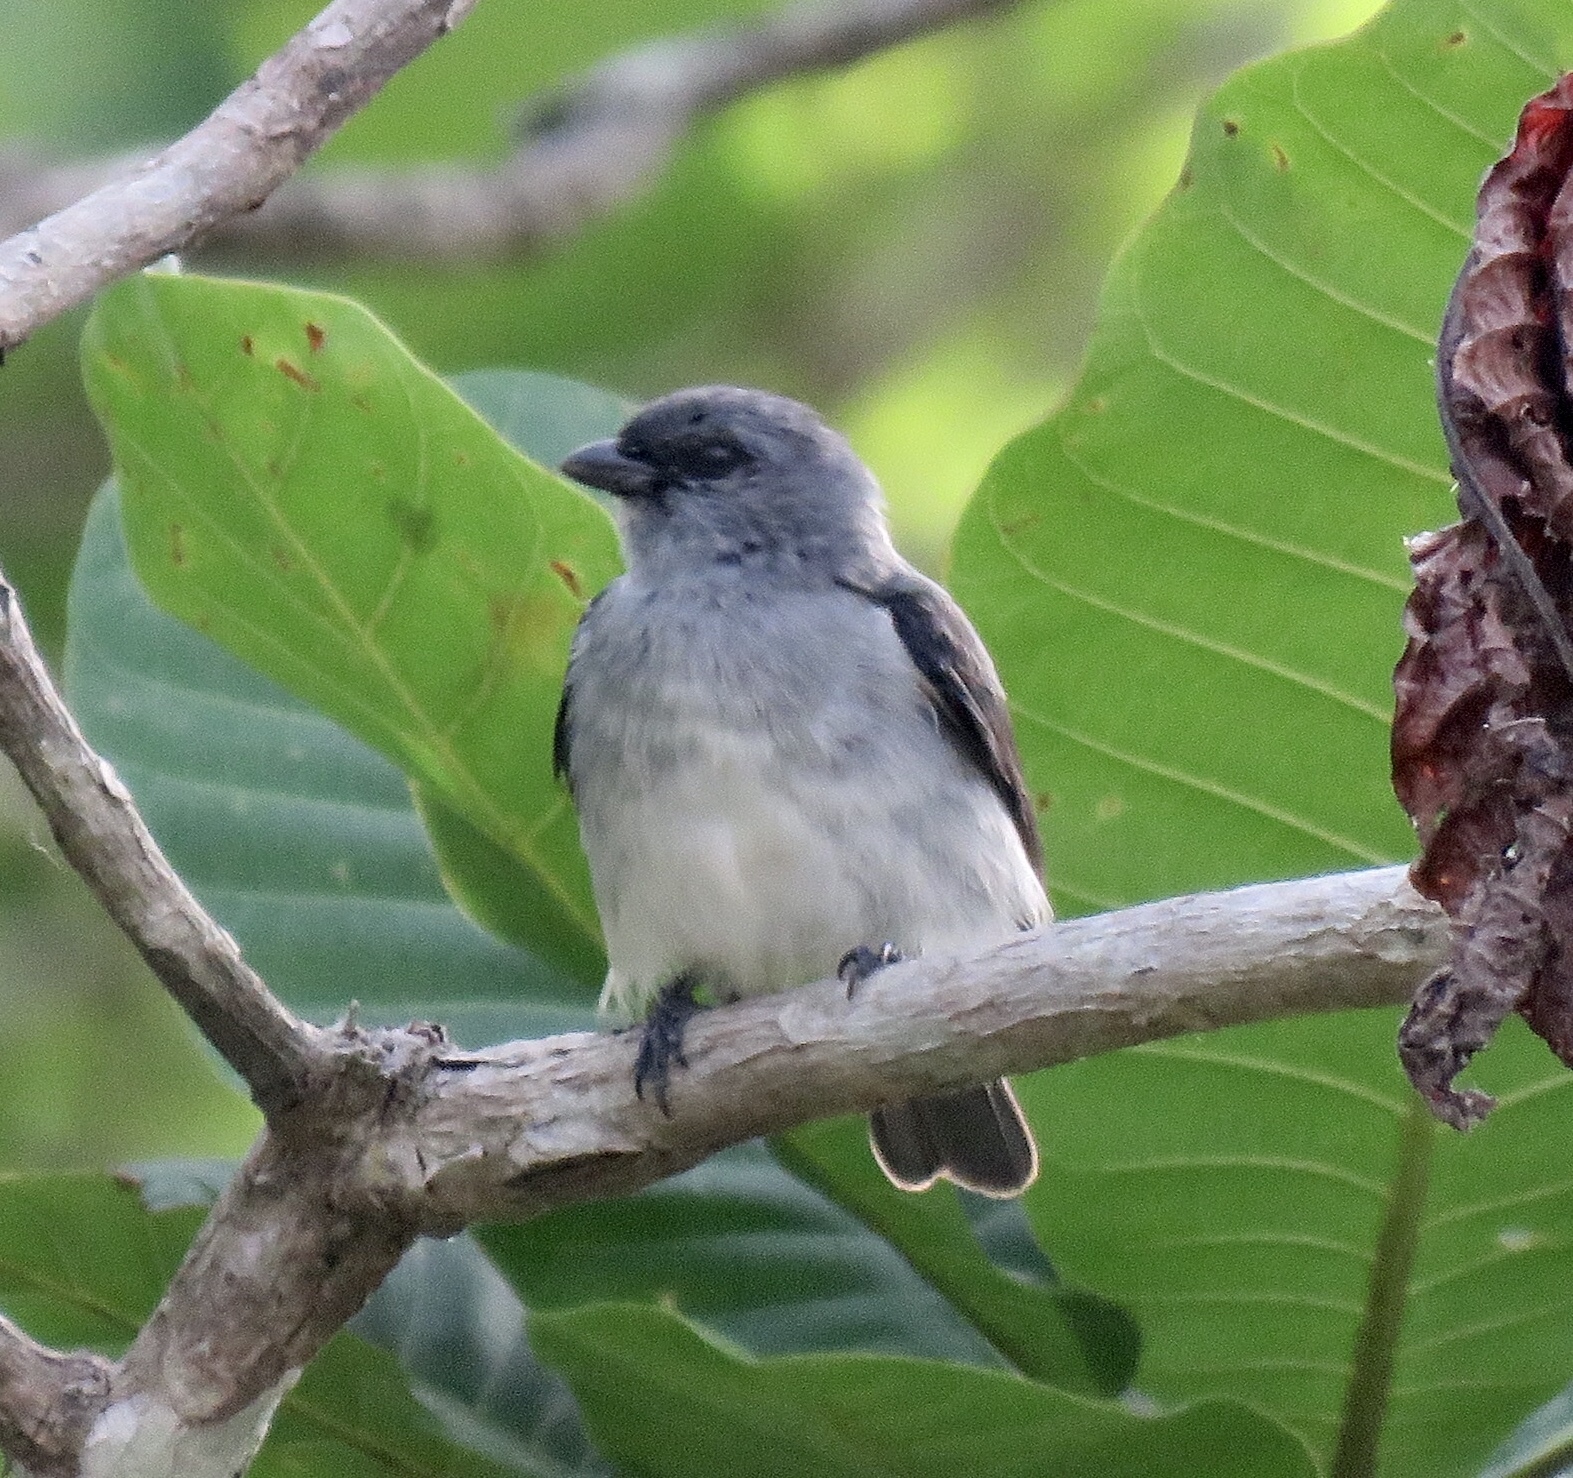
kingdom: Animalia
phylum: Chordata
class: Aves
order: Passeriformes
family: Thraupidae
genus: Tangara
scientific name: Tangara inornata
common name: Plain-colored tanager
